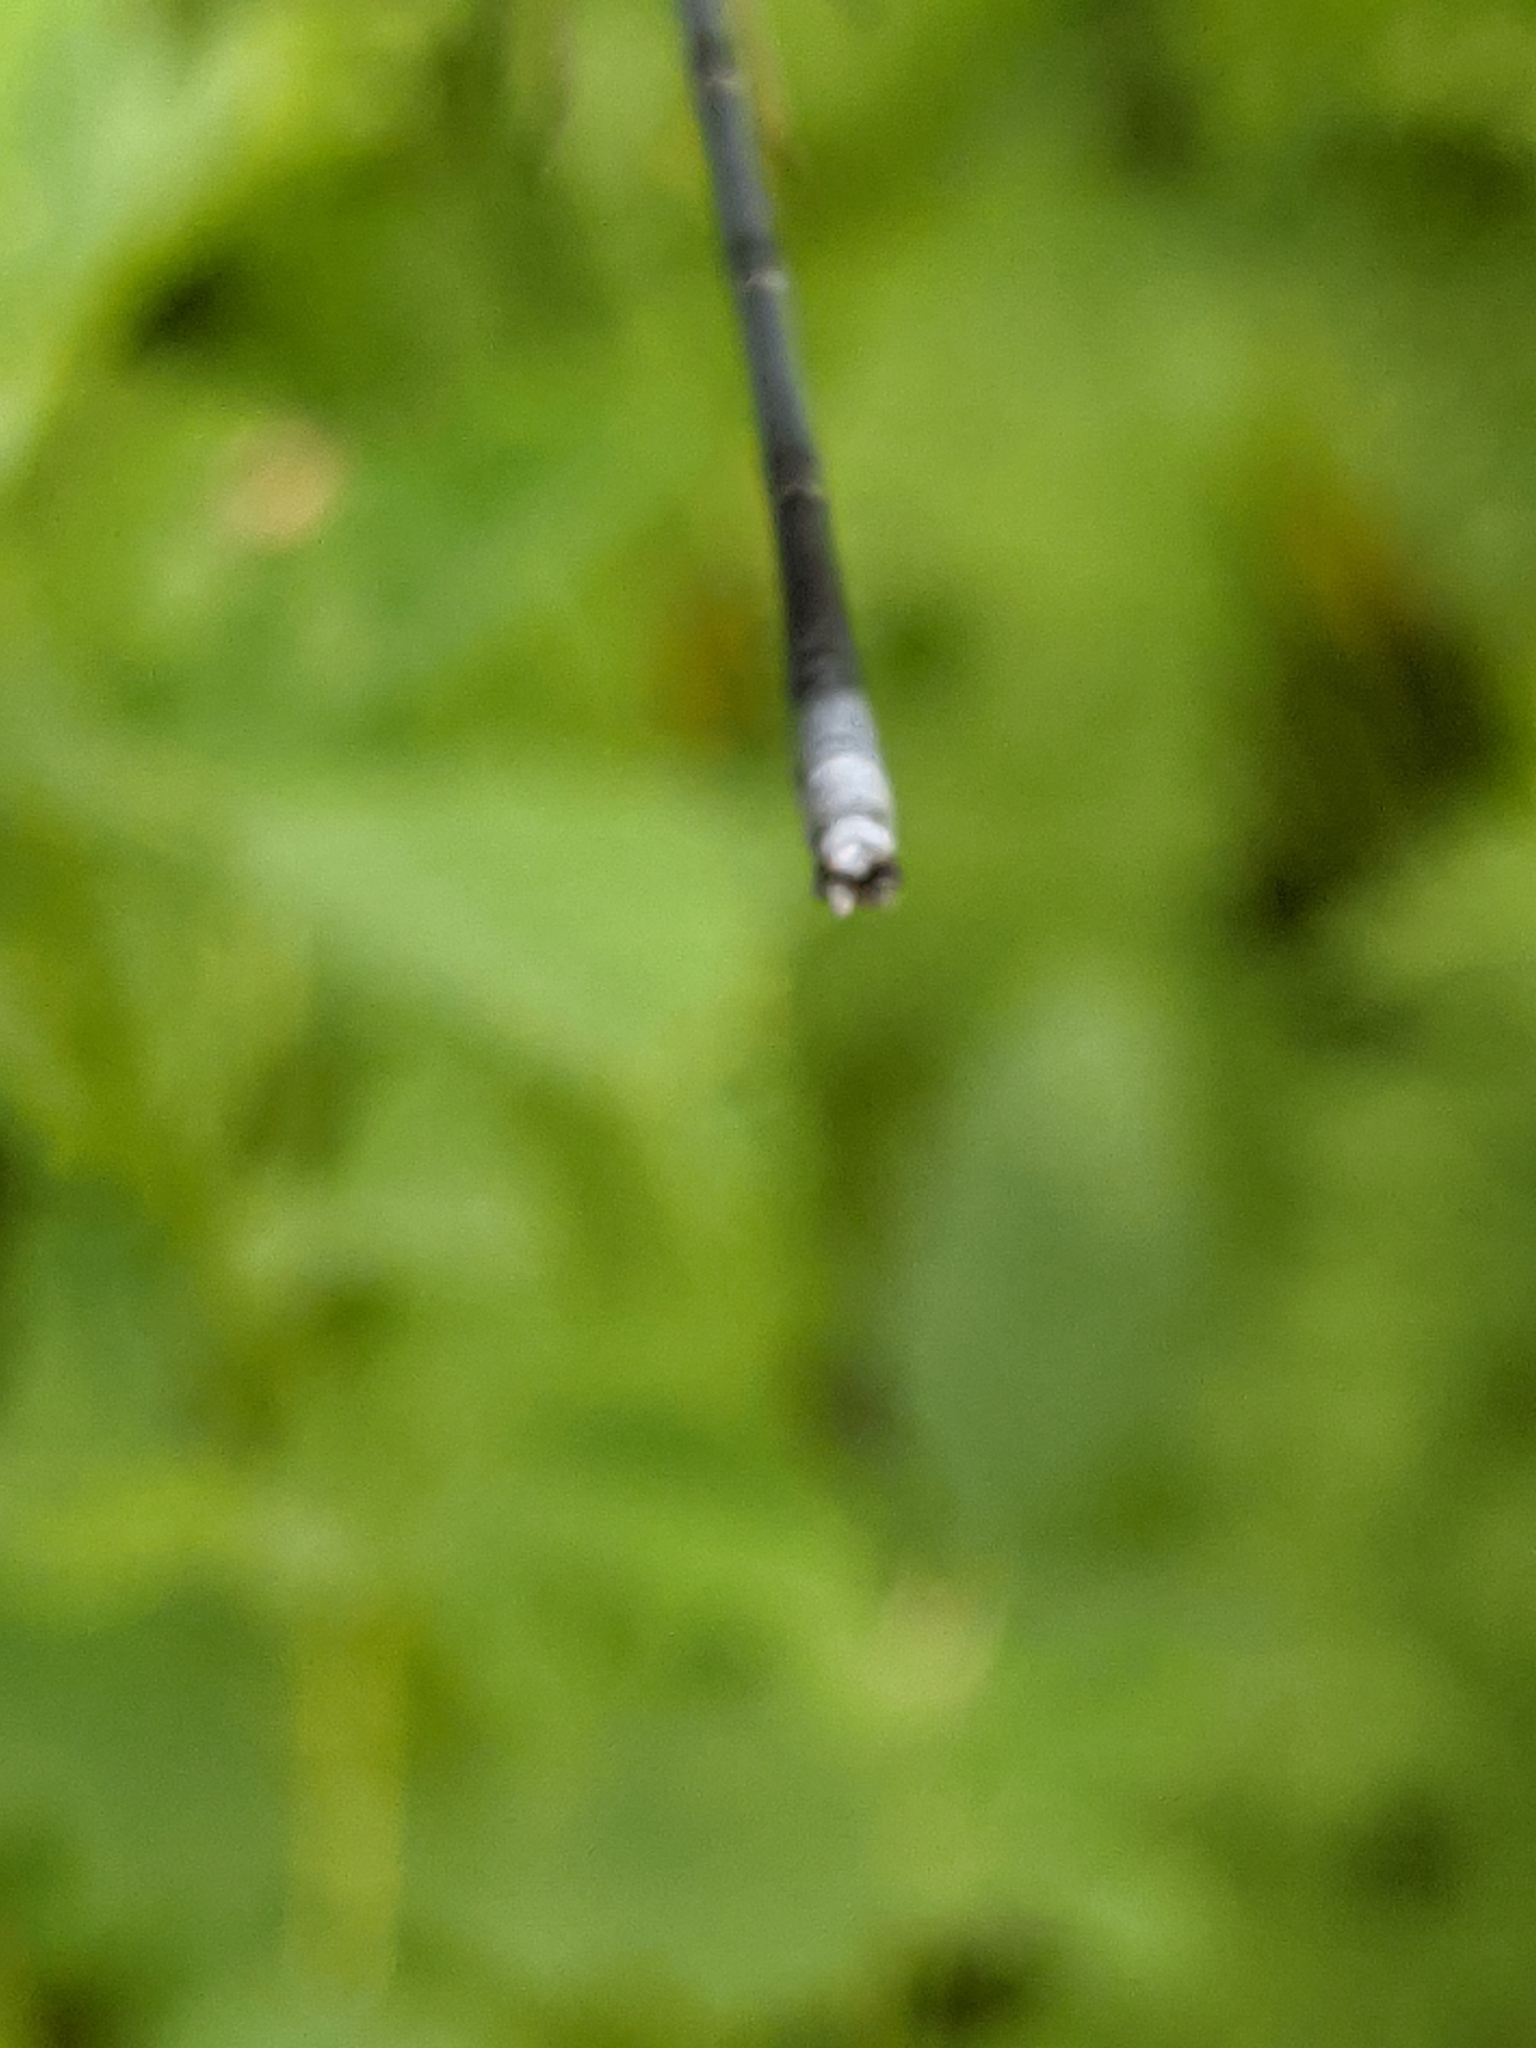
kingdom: Animalia
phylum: Arthropoda
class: Insecta
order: Odonata
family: Coenagrionidae
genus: Argia
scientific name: Argia moesta
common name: Powdered dancer
